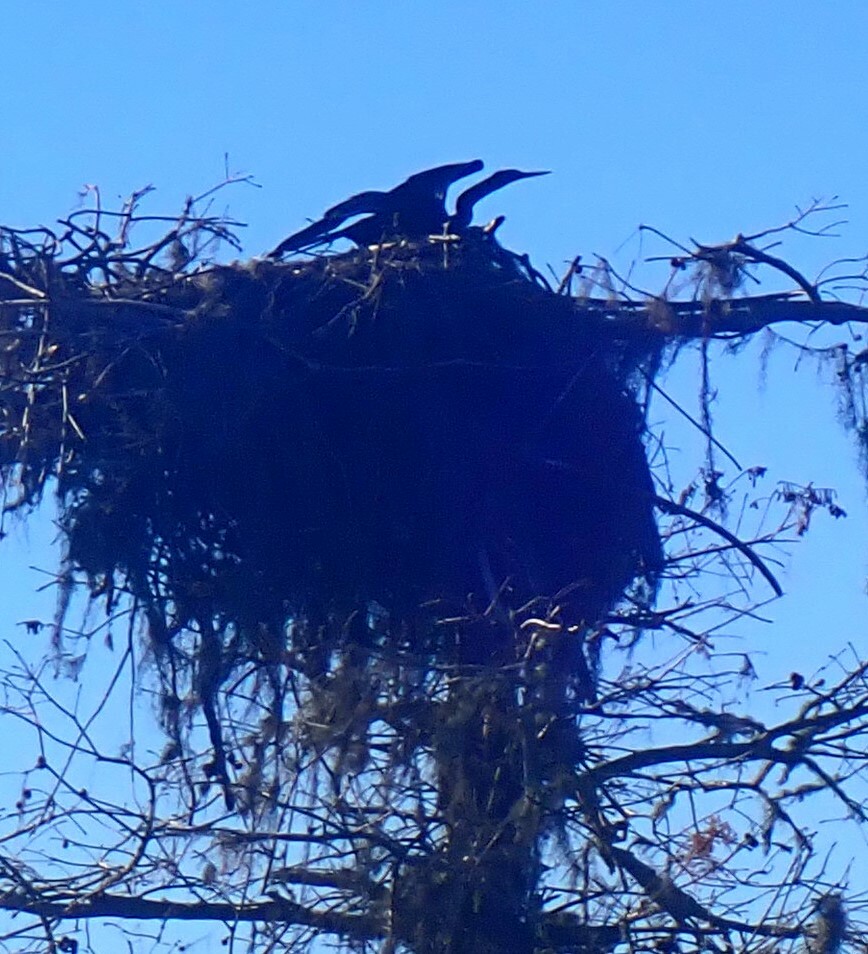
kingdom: Animalia
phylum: Chordata
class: Aves
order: Suliformes
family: Anhingidae
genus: Anhinga
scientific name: Anhinga anhinga
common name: Anhinga
